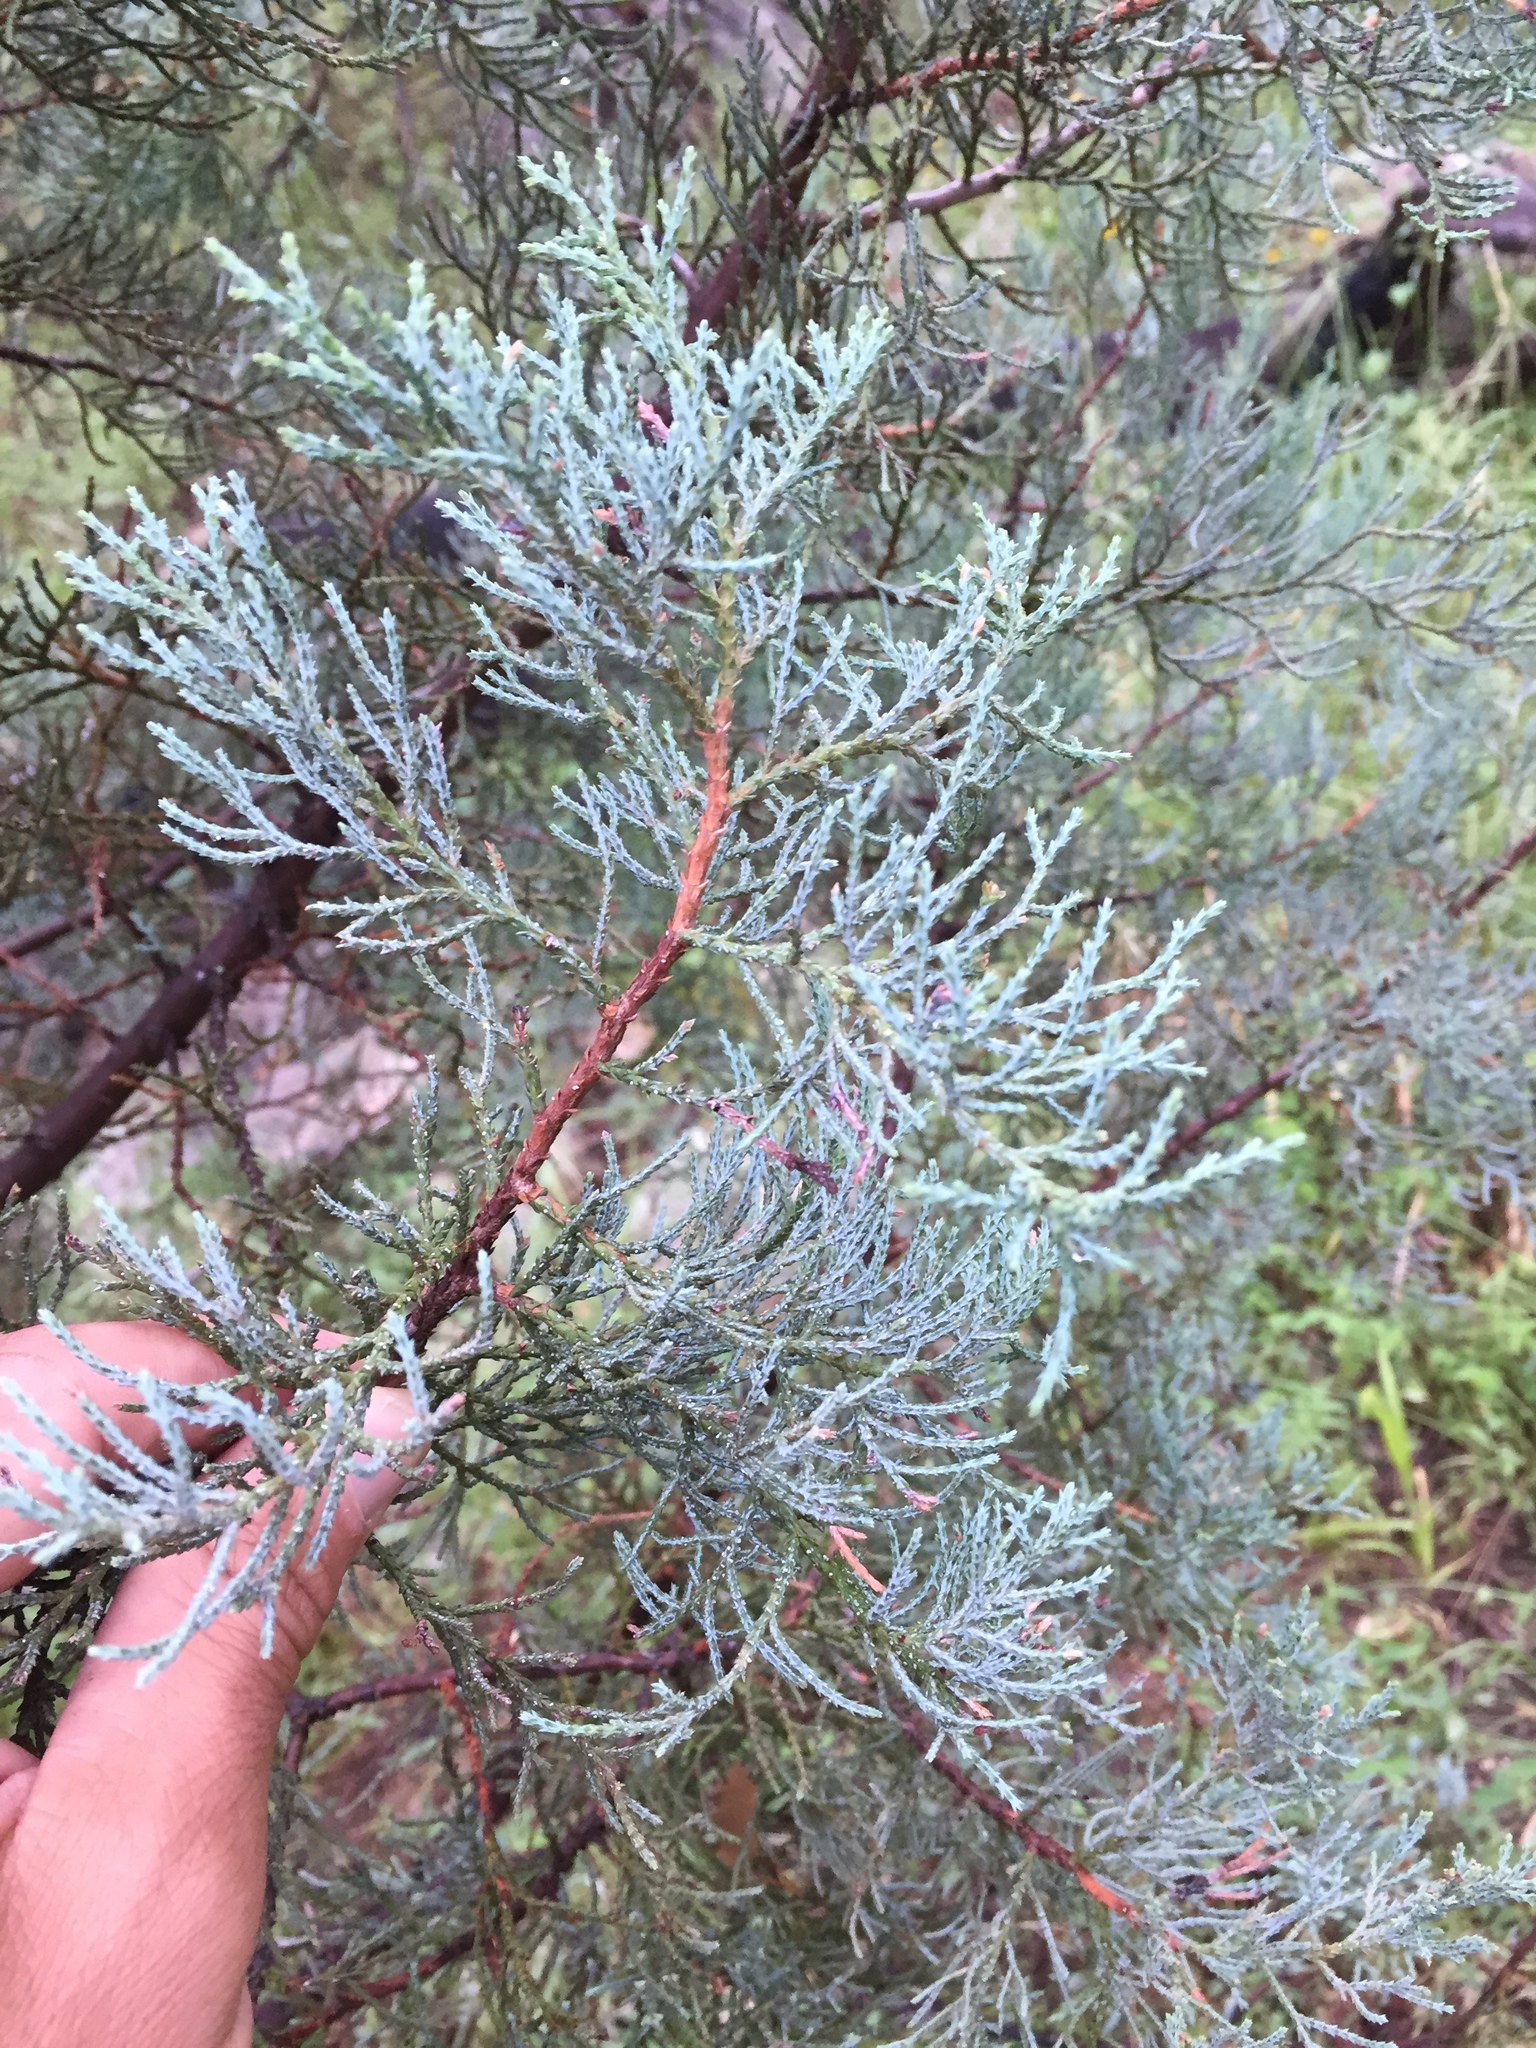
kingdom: Plantae
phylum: Tracheophyta
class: Pinopsida
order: Pinales
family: Cupressaceae
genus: Juniperus
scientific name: Juniperus deppeana
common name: Alligator juniper
